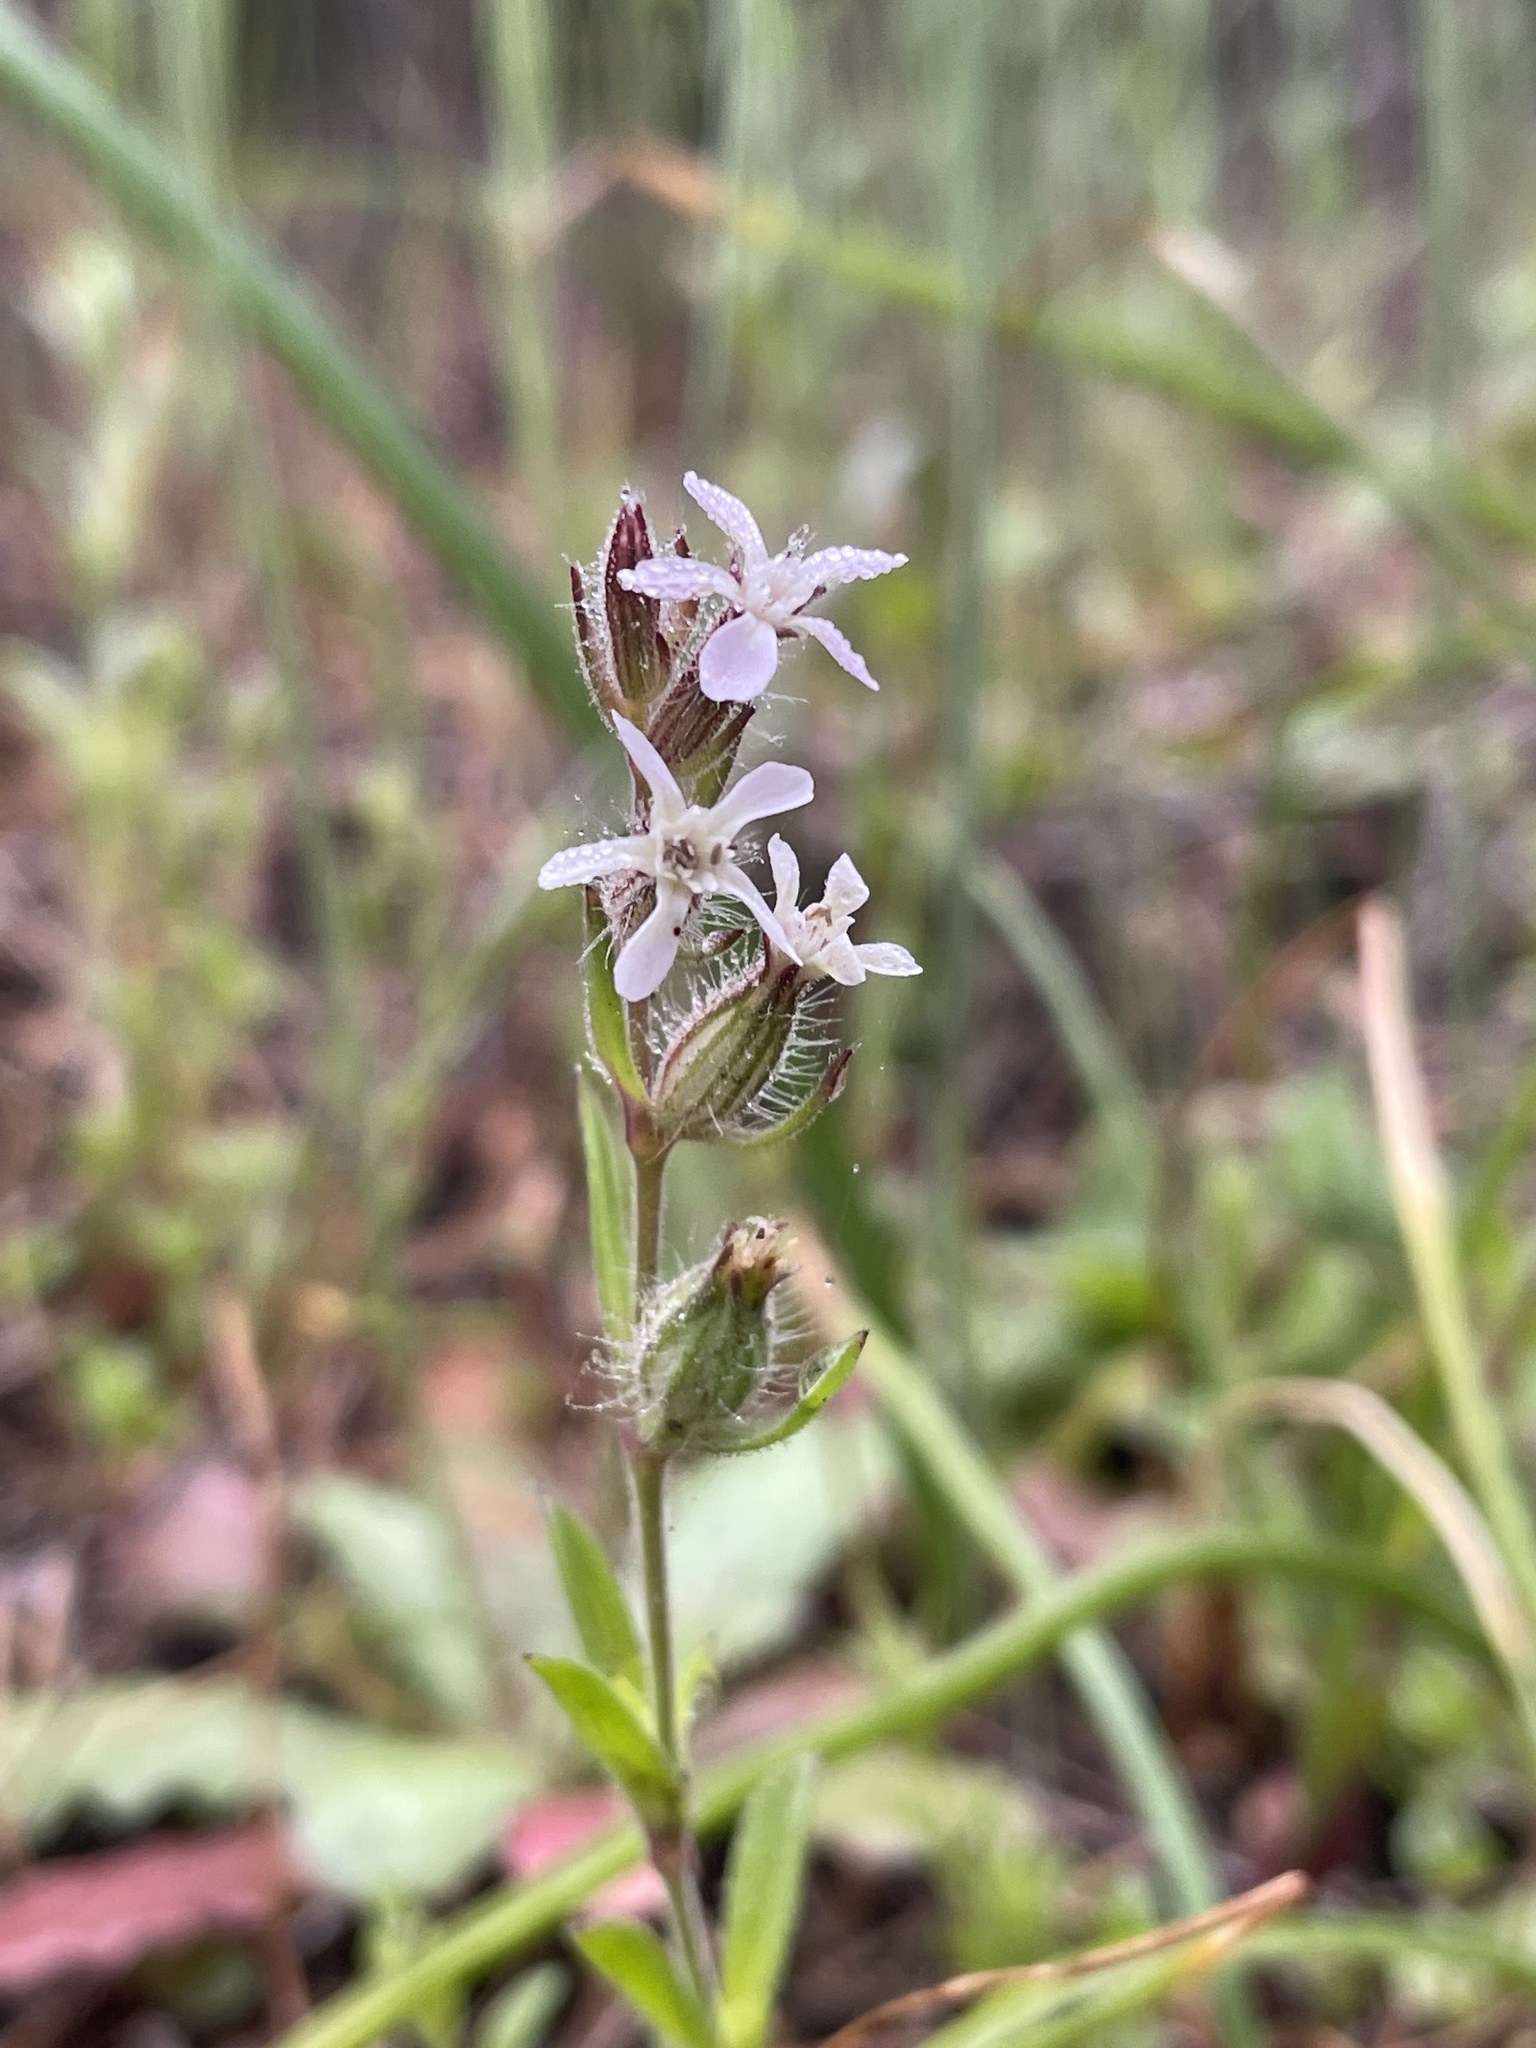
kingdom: Plantae
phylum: Tracheophyta
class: Magnoliopsida
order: Caryophyllales
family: Caryophyllaceae
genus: Silene
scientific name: Silene gallica
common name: Small-flowered catchfly
